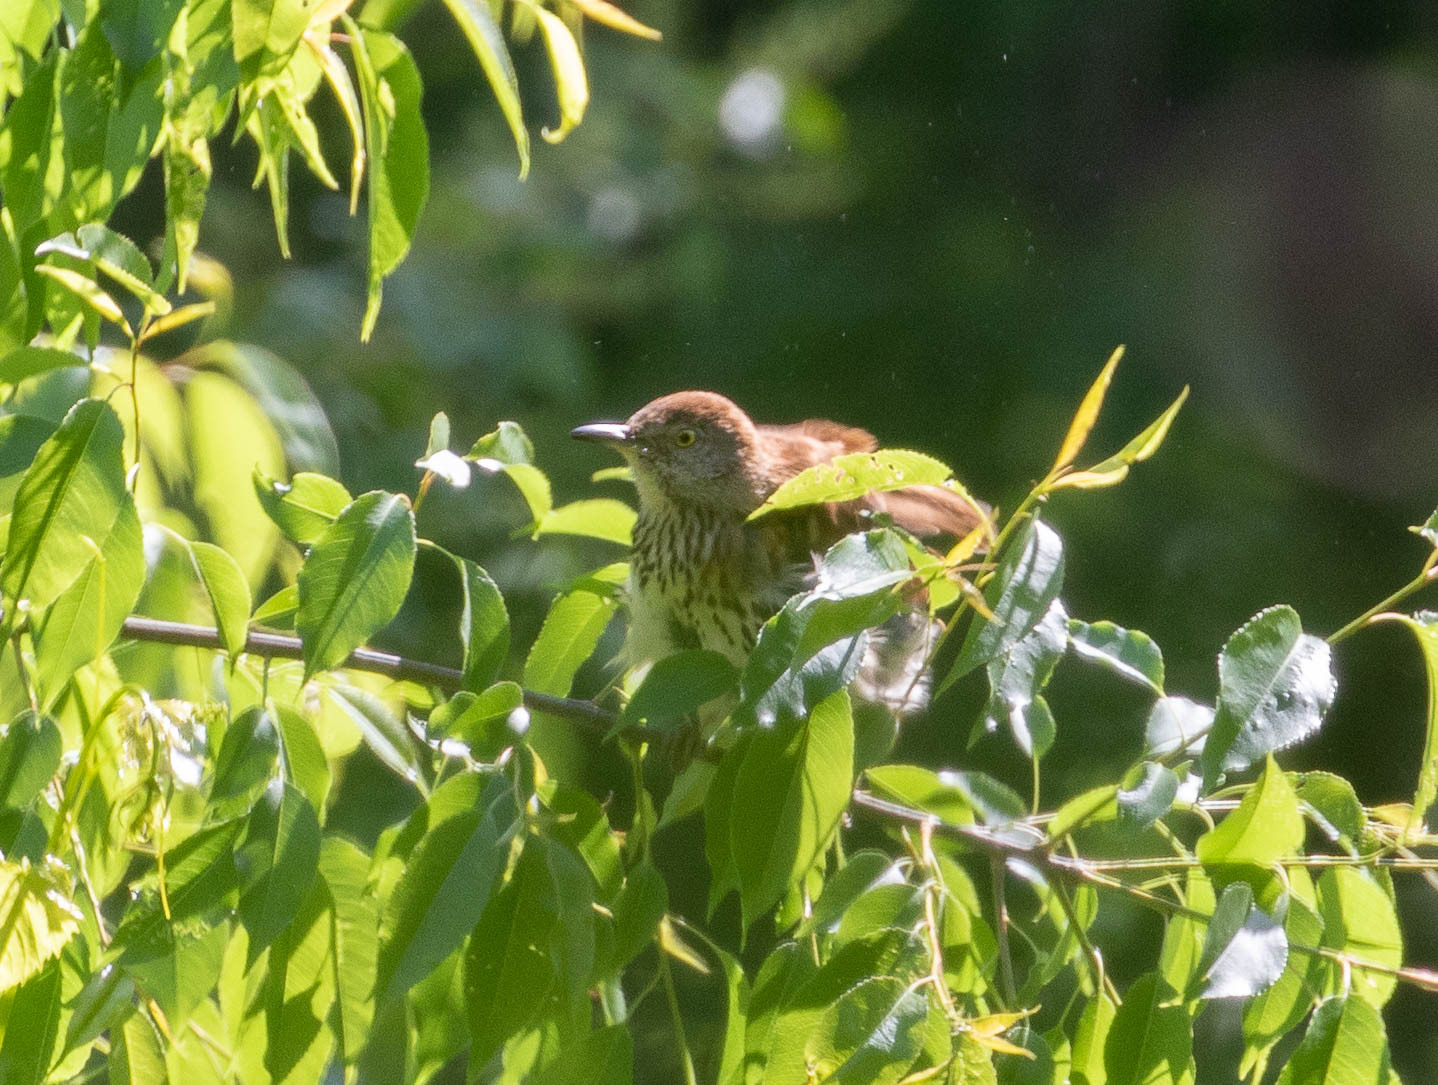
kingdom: Animalia
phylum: Chordata
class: Aves
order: Passeriformes
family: Mimidae
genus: Toxostoma
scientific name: Toxostoma rufum
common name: Brown thrasher
